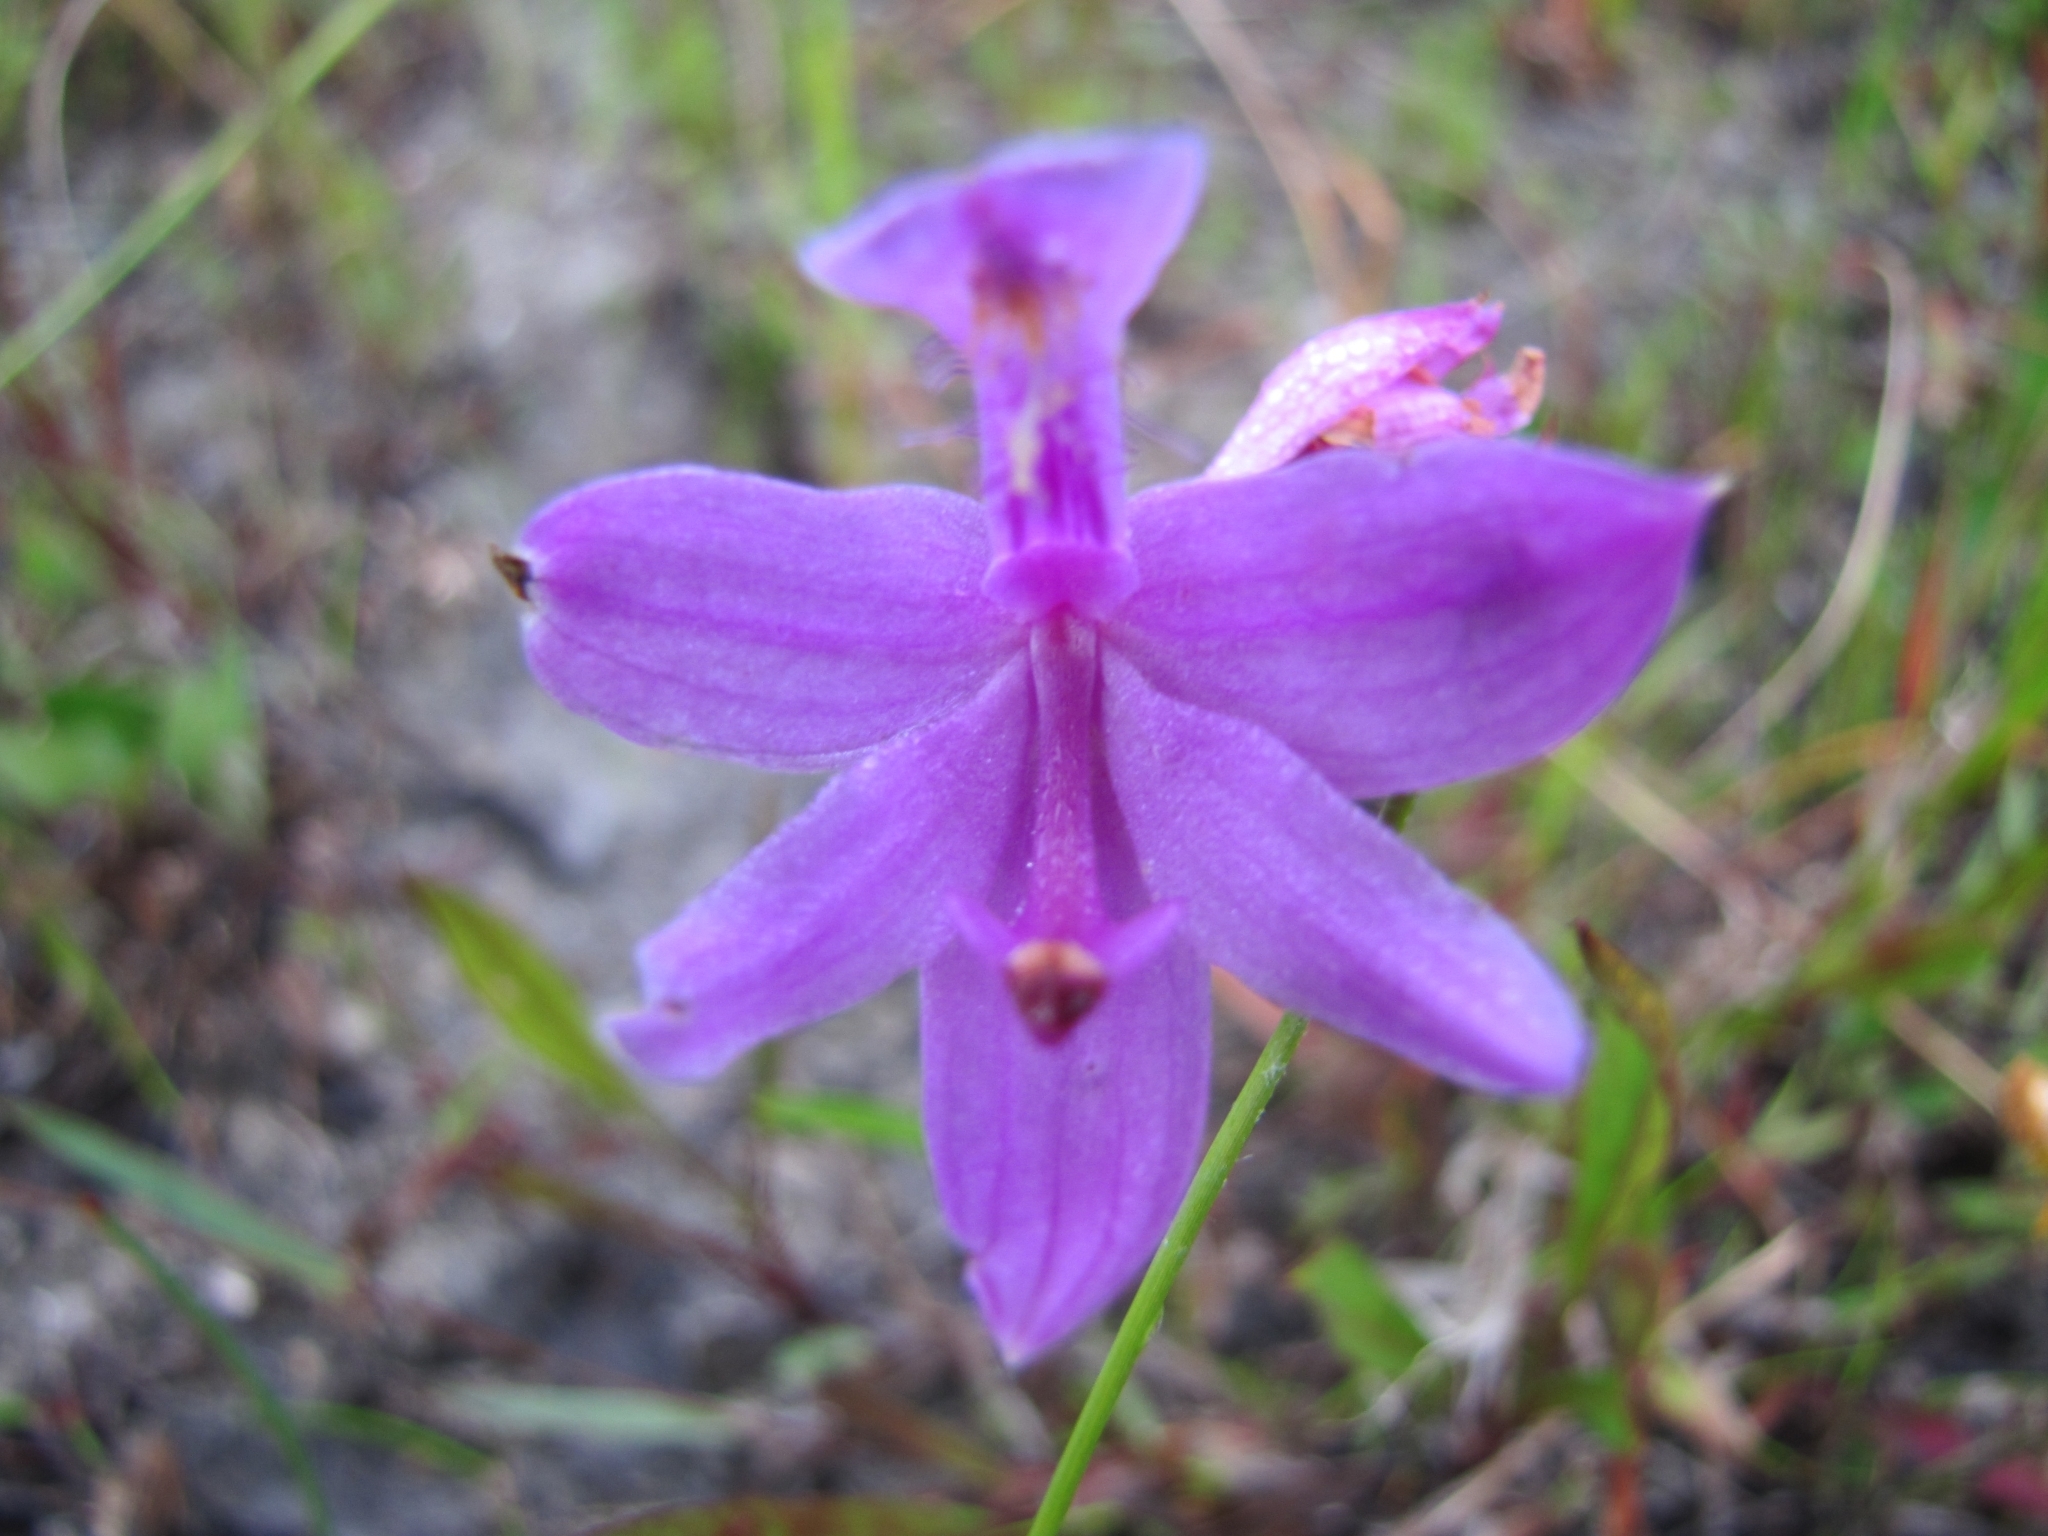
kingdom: Plantae
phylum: Tracheophyta
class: Liliopsida
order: Asparagales
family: Orchidaceae
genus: Calopogon
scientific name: Calopogon tuberosus
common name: Grass-pink
